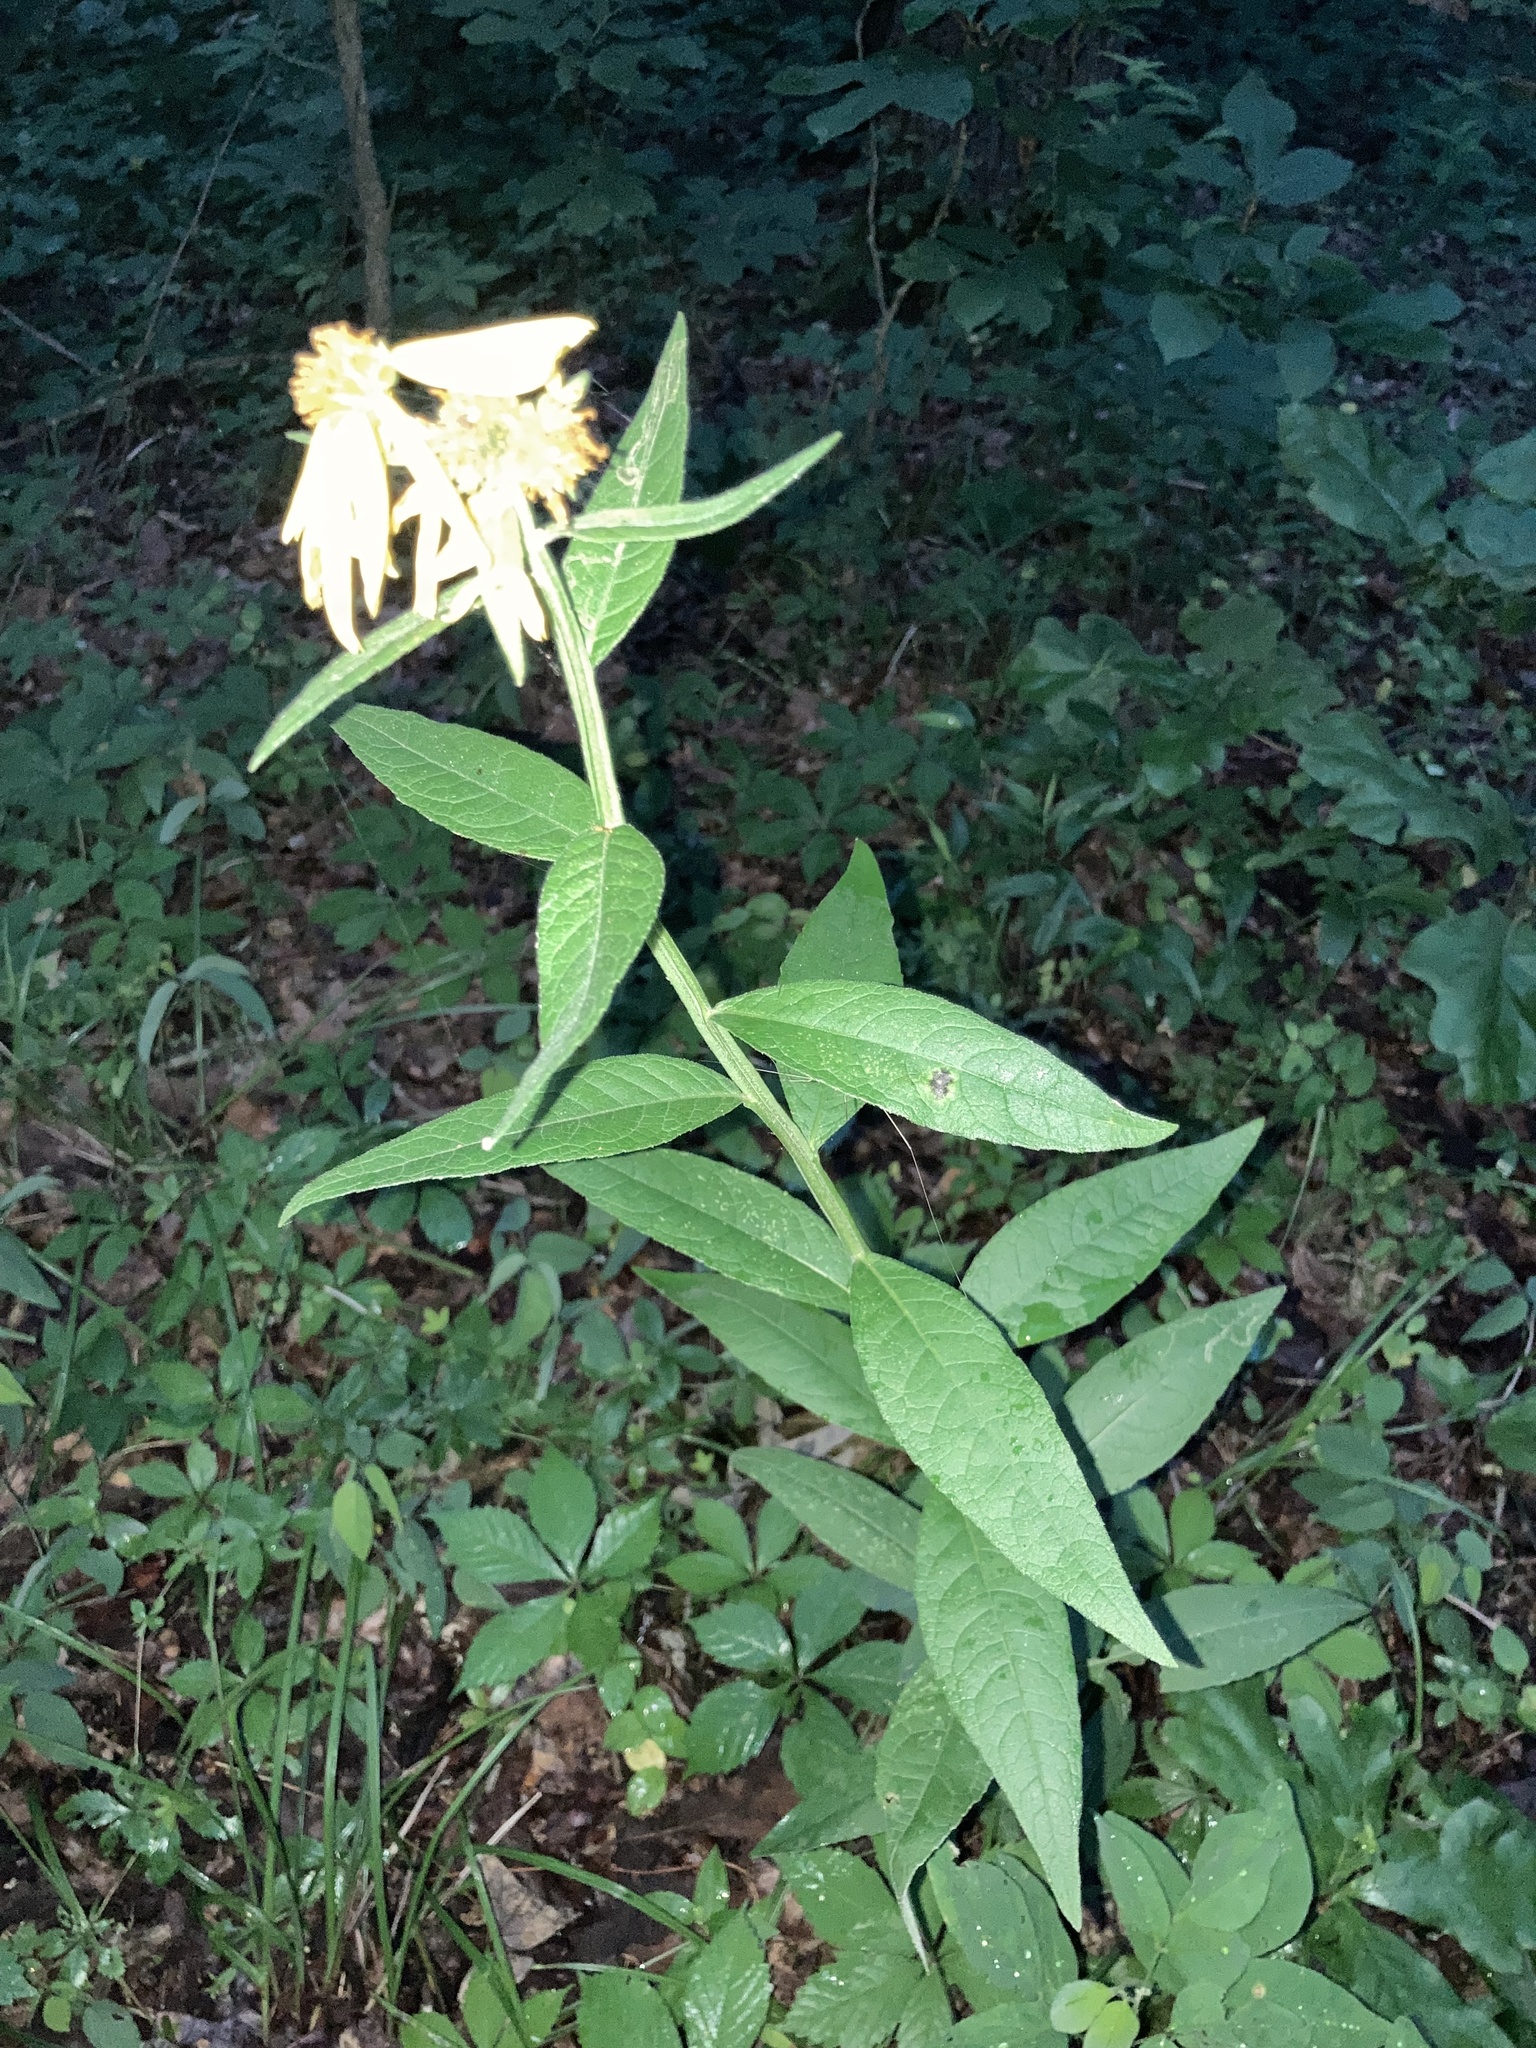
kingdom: Plantae
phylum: Tracheophyta
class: Magnoliopsida
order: Asterales
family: Asteraceae
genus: Verbesina
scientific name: Verbesina helianthoides
